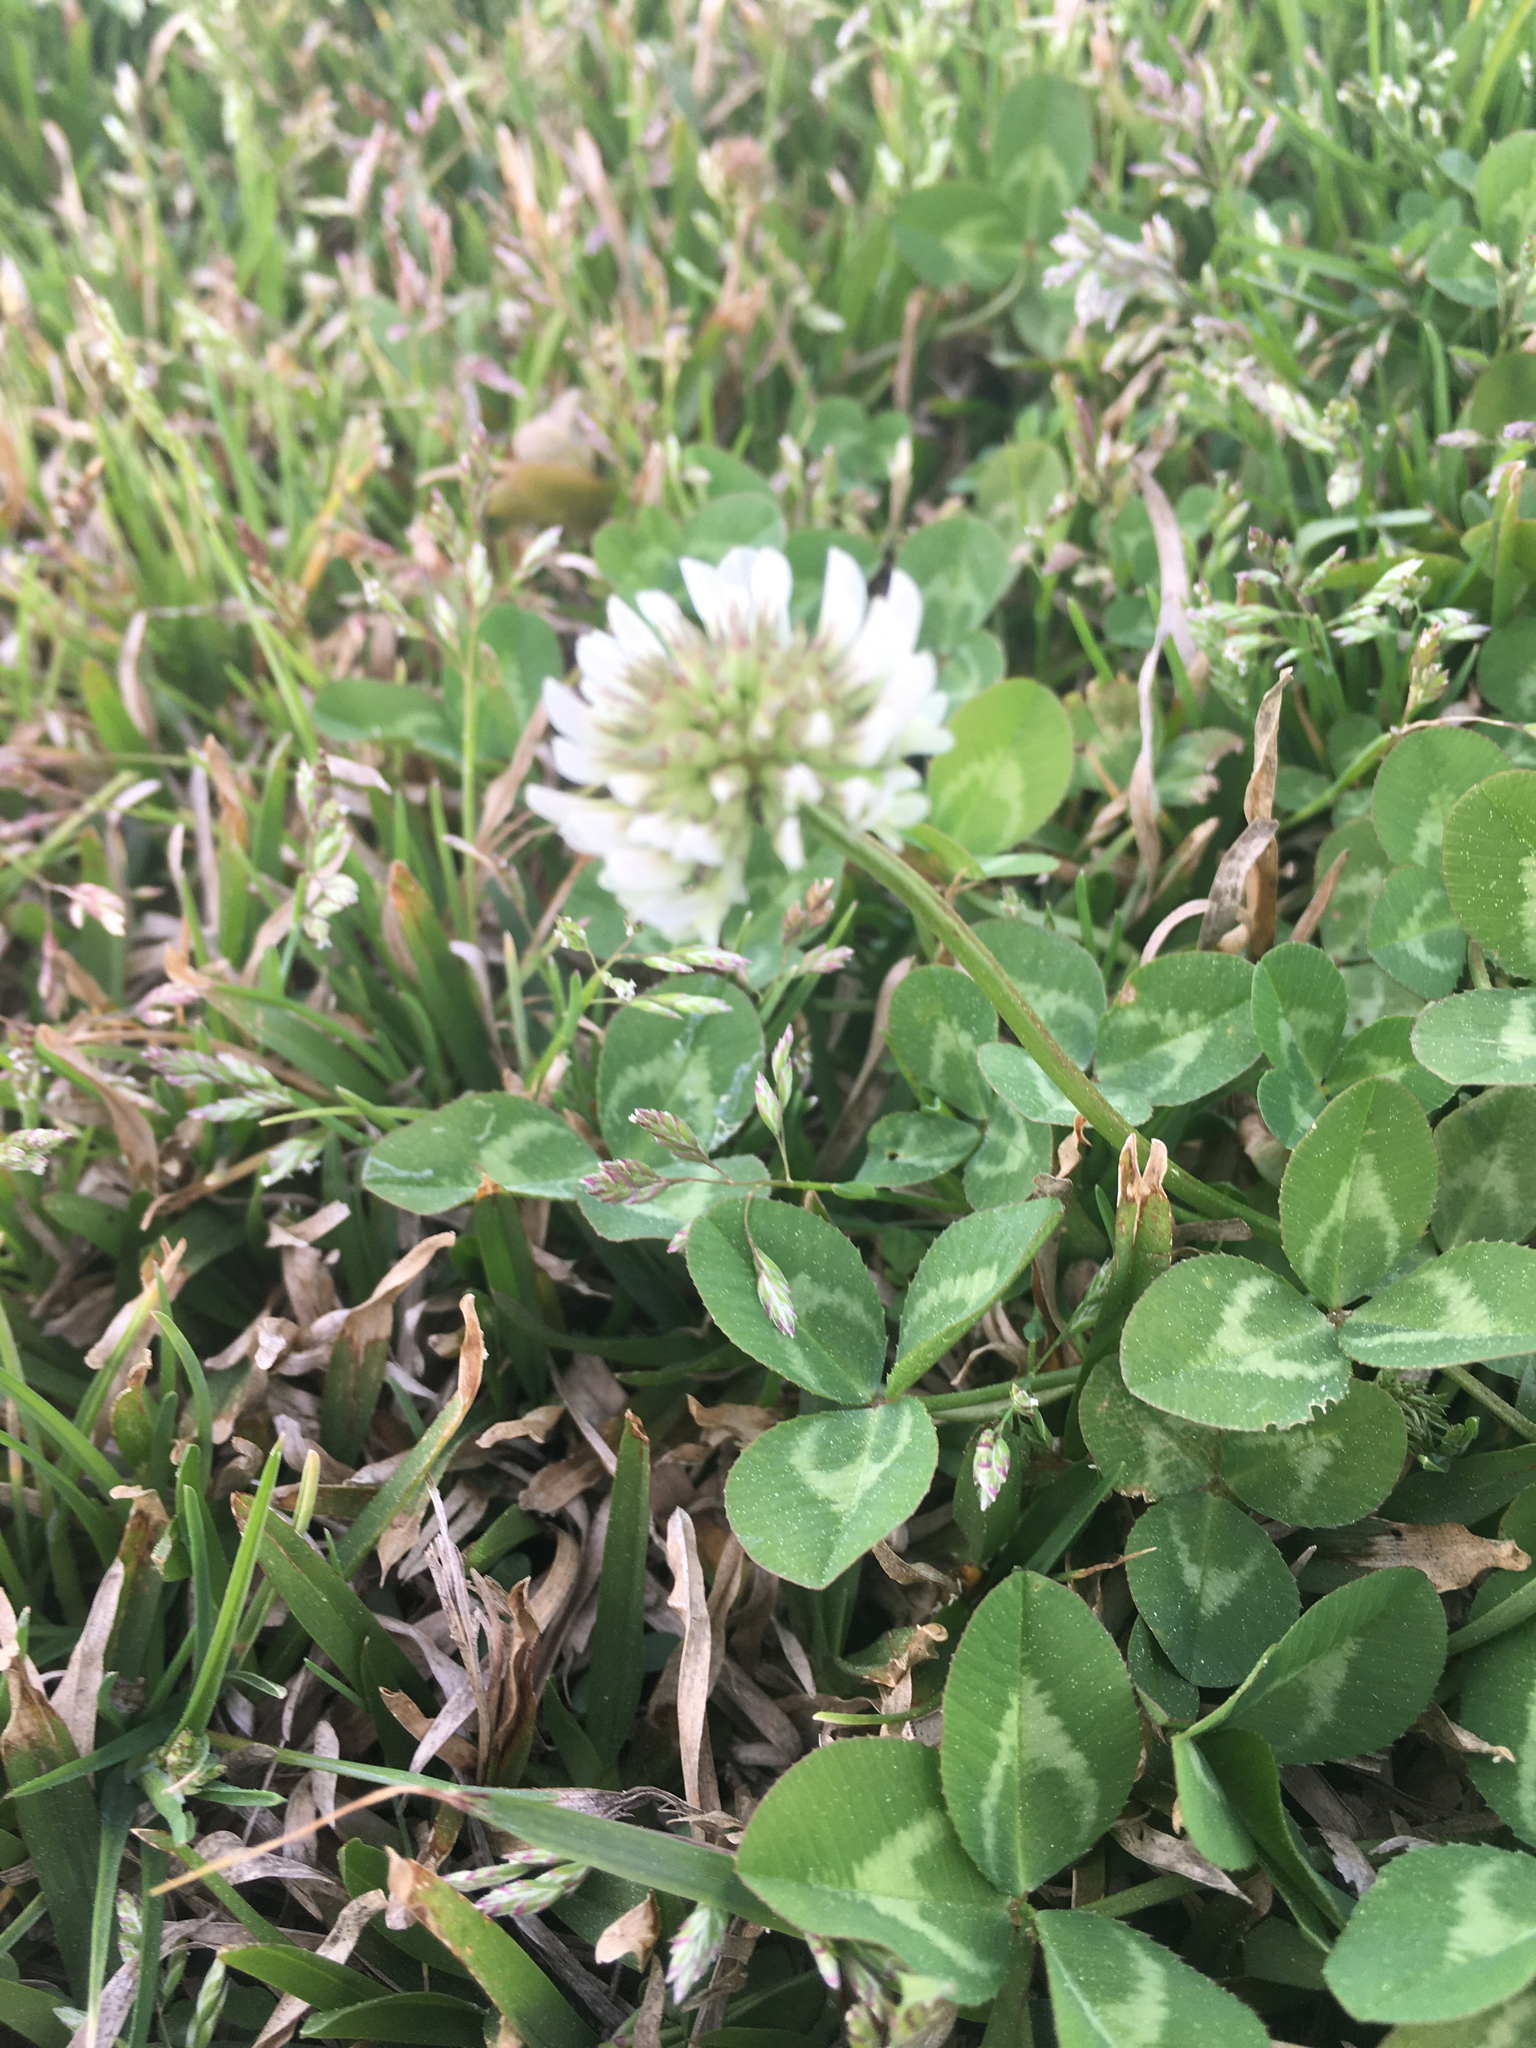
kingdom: Plantae
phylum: Tracheophyta
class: Magnoliopsida
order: Fabales
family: Fabaceae
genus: Trifolium
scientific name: Trifolium repens
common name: White clover
